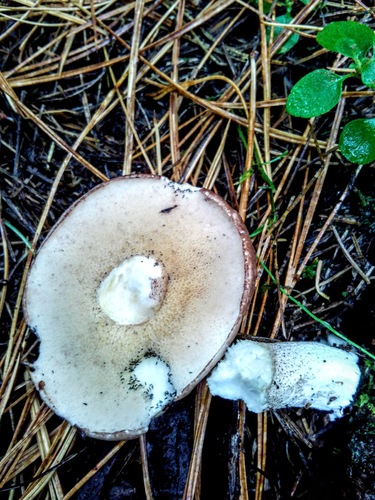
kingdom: Fungi
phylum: Basidiomycota
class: Agaricomycetes
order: Boletales
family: Suillaceae
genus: Suillus
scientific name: Suillus placidus
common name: Slippery white bolete
